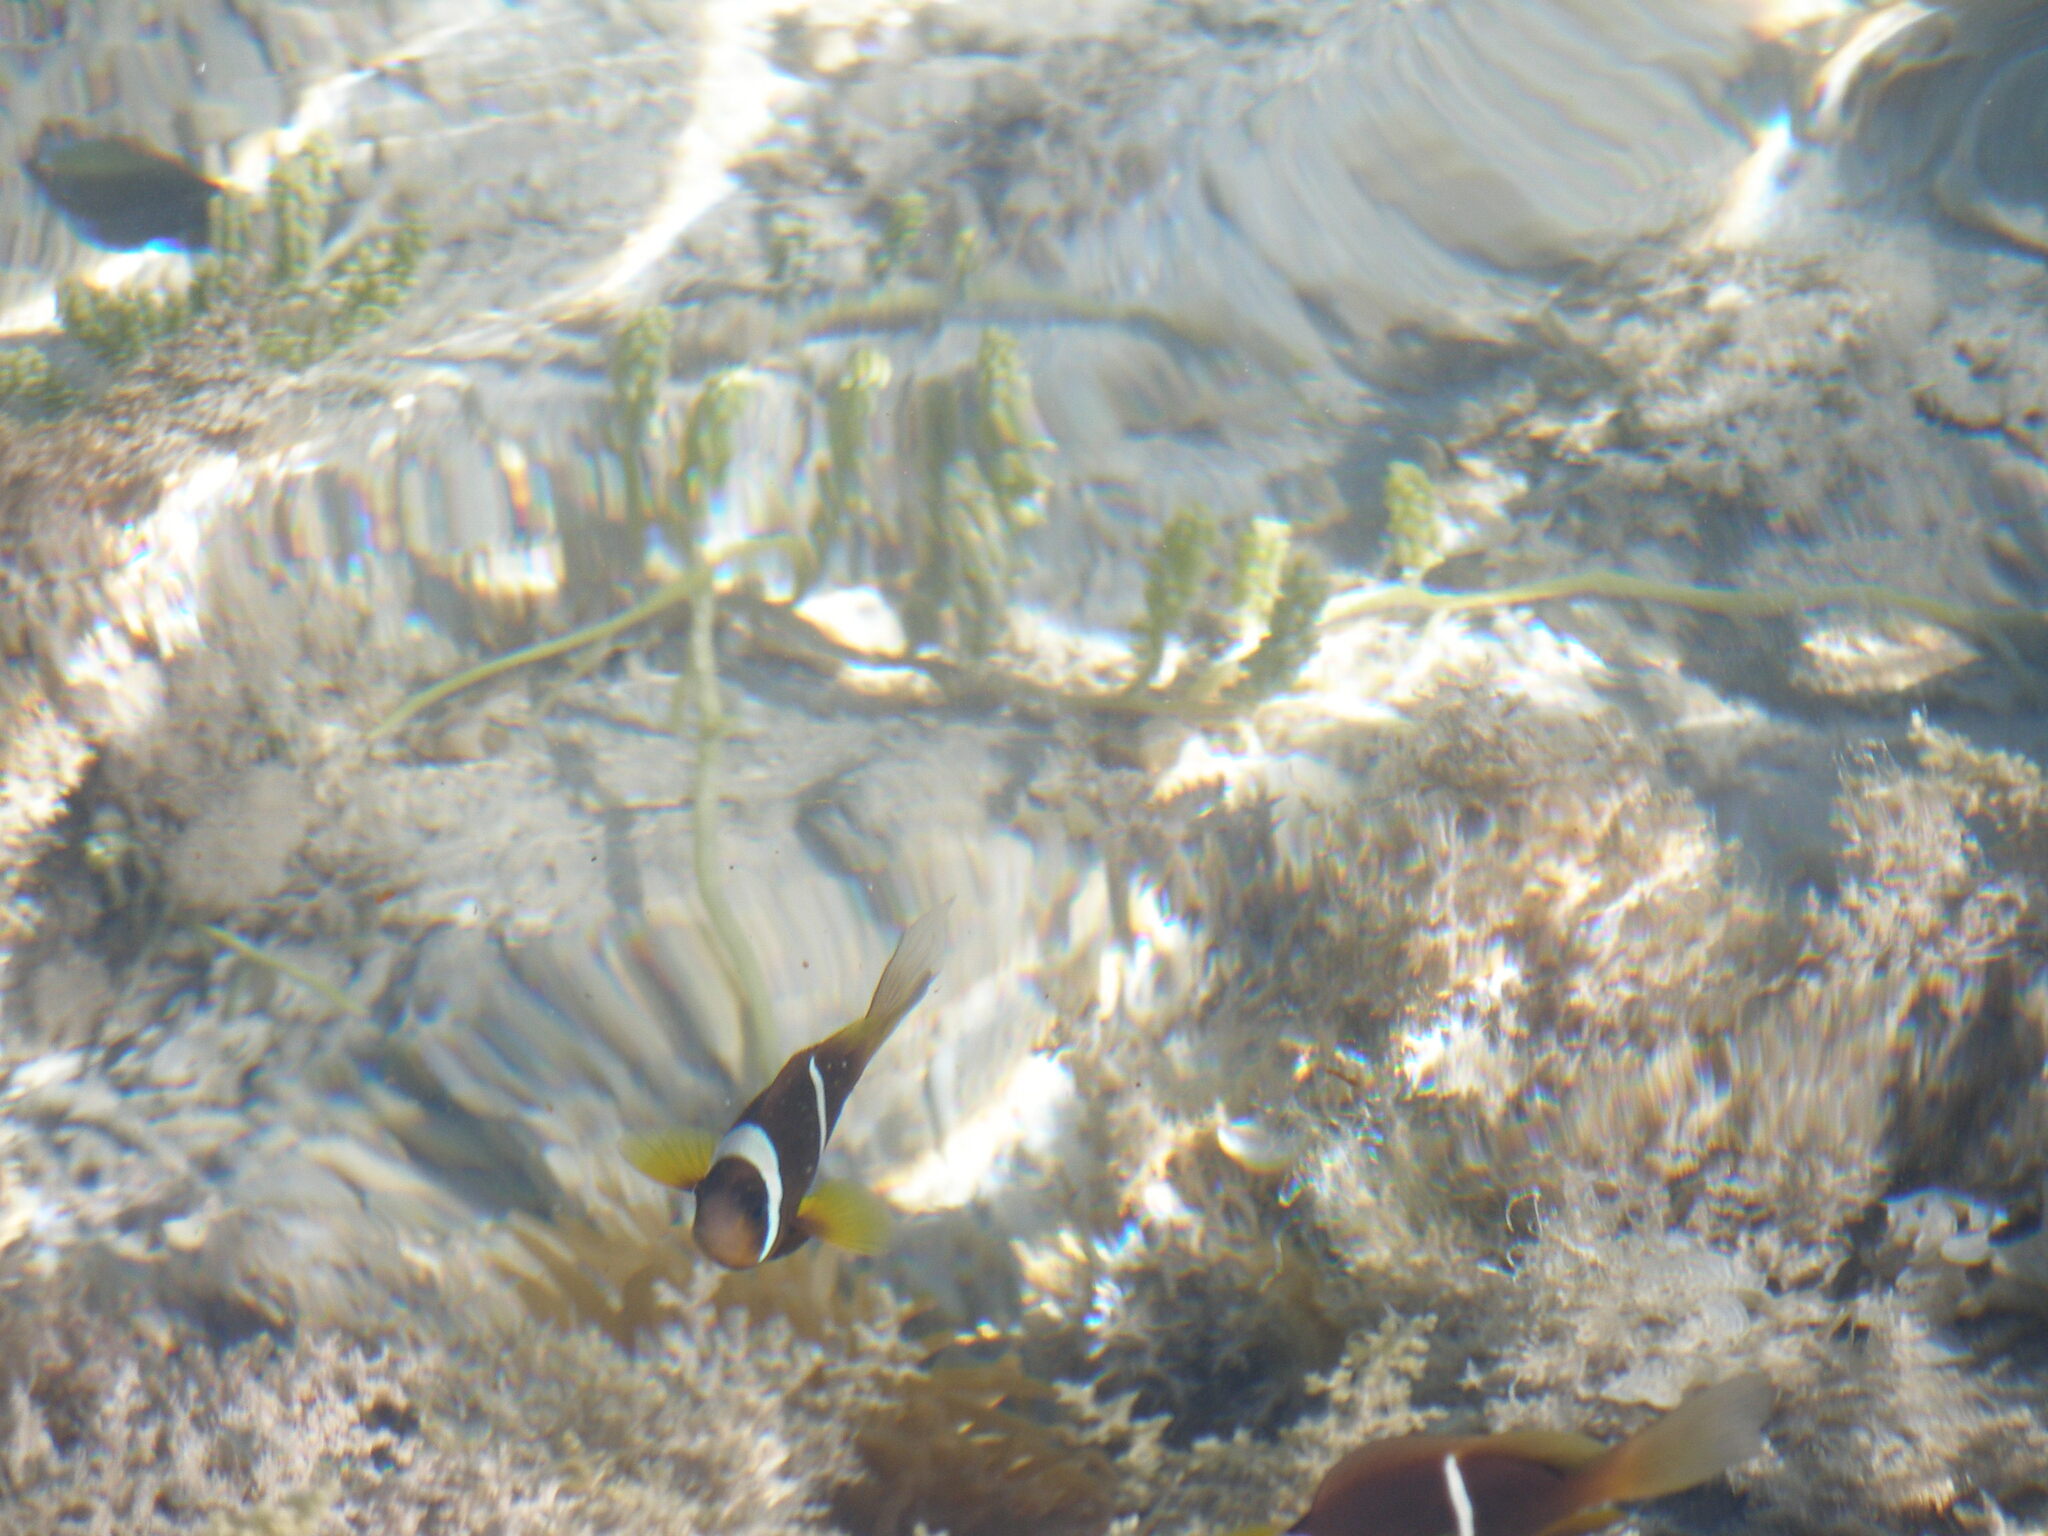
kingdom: Animalia
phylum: Chordata
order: Perciformes
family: Pomacentridae
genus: Amphiprion
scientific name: Amphiprion bicinctus
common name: Two-banded anemonefish
